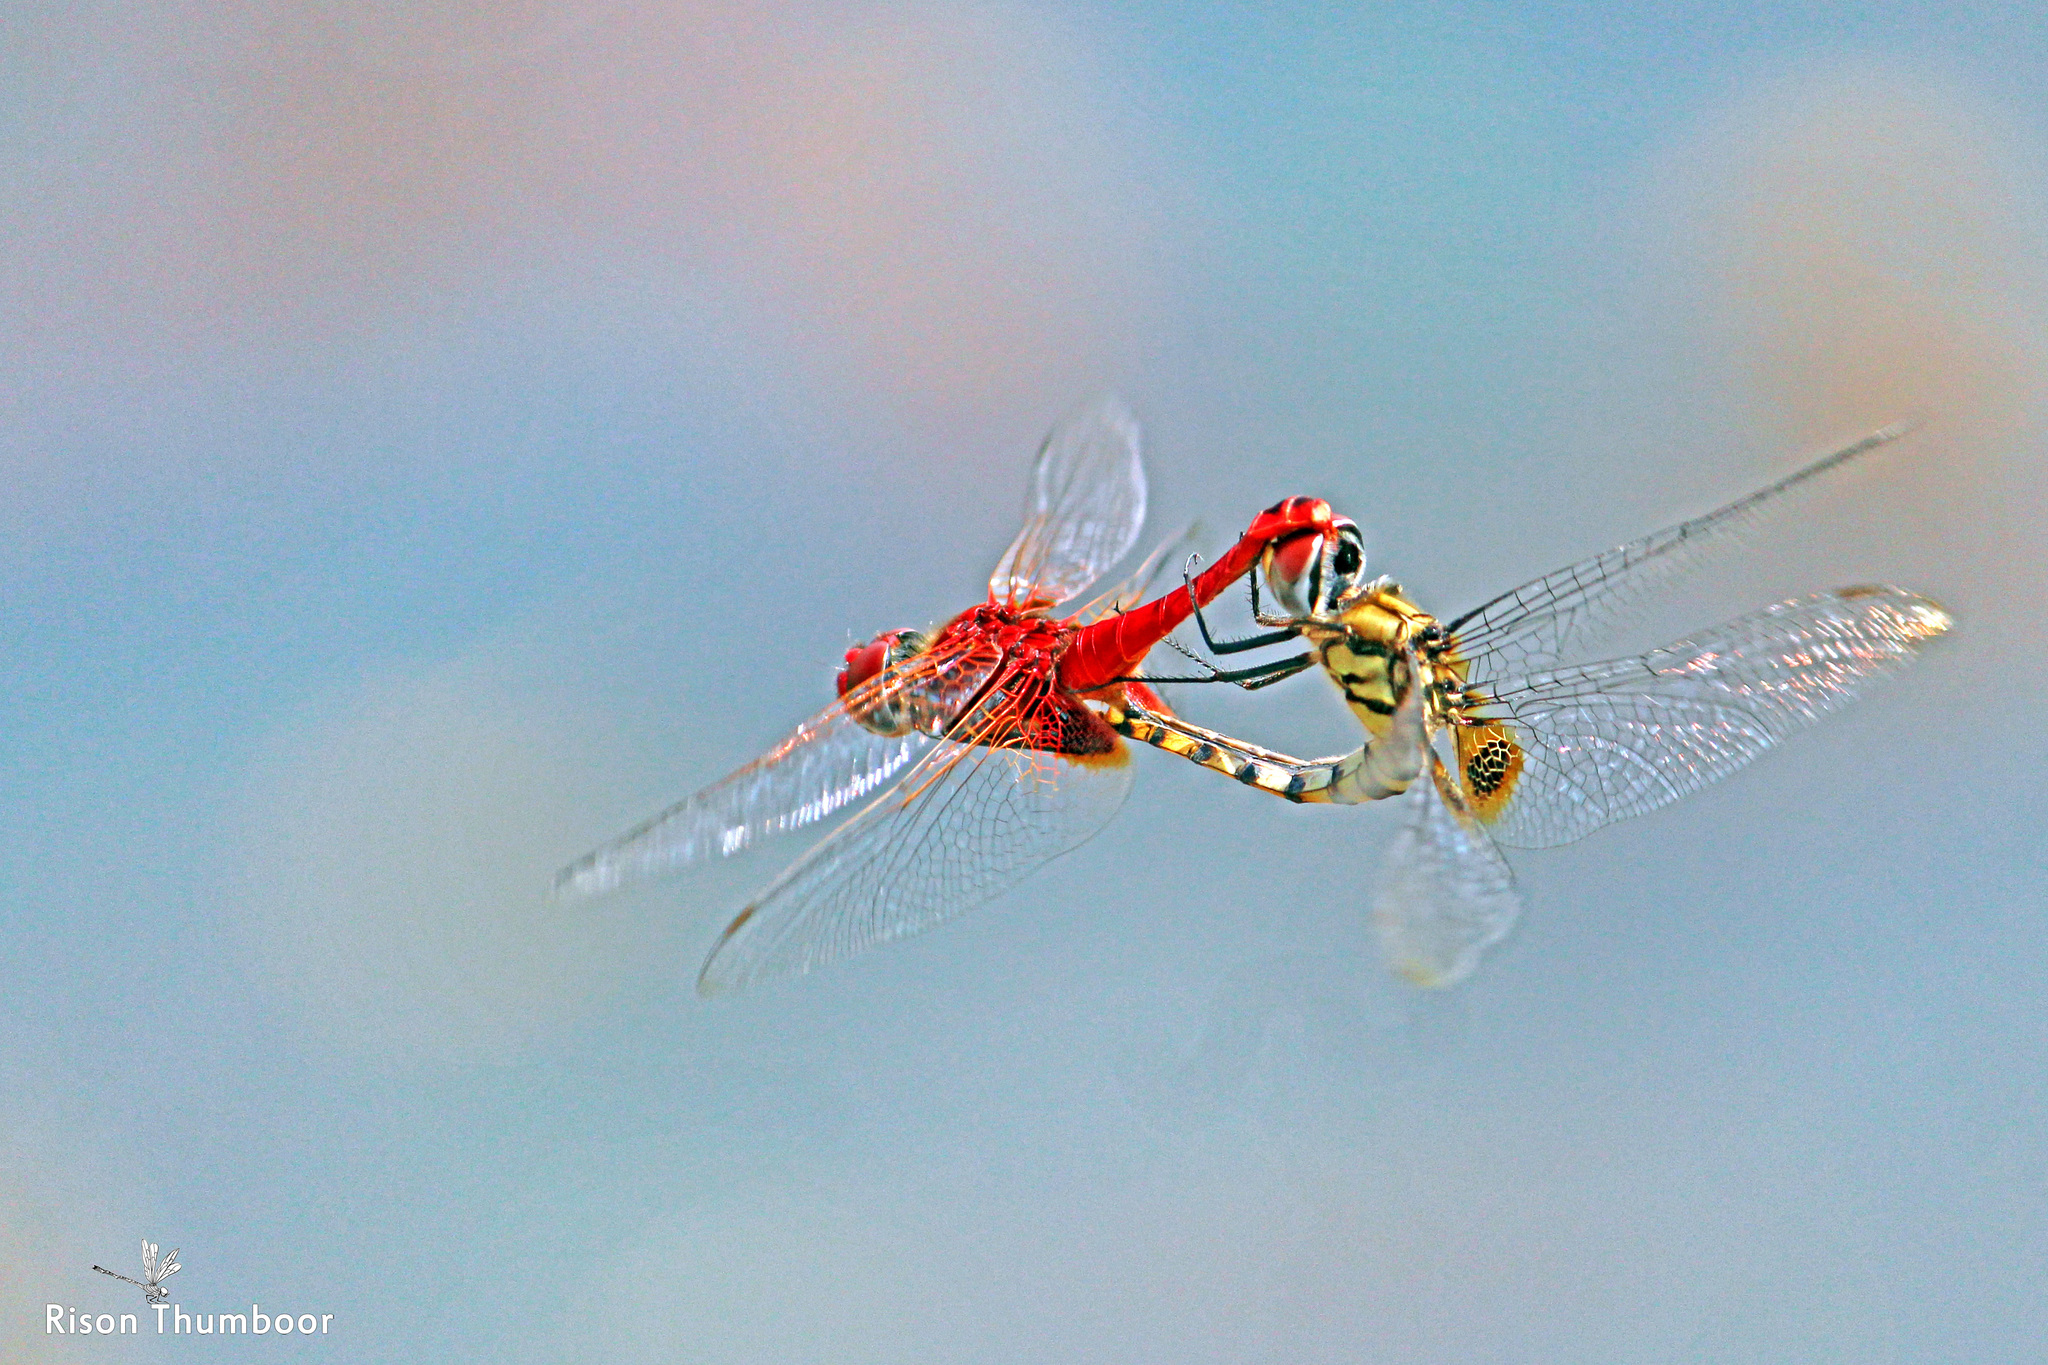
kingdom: Animalia
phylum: Arthropoda
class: Insecta
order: Odonata
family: Libellulidae
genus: Urothemis
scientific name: Urothemis signata
